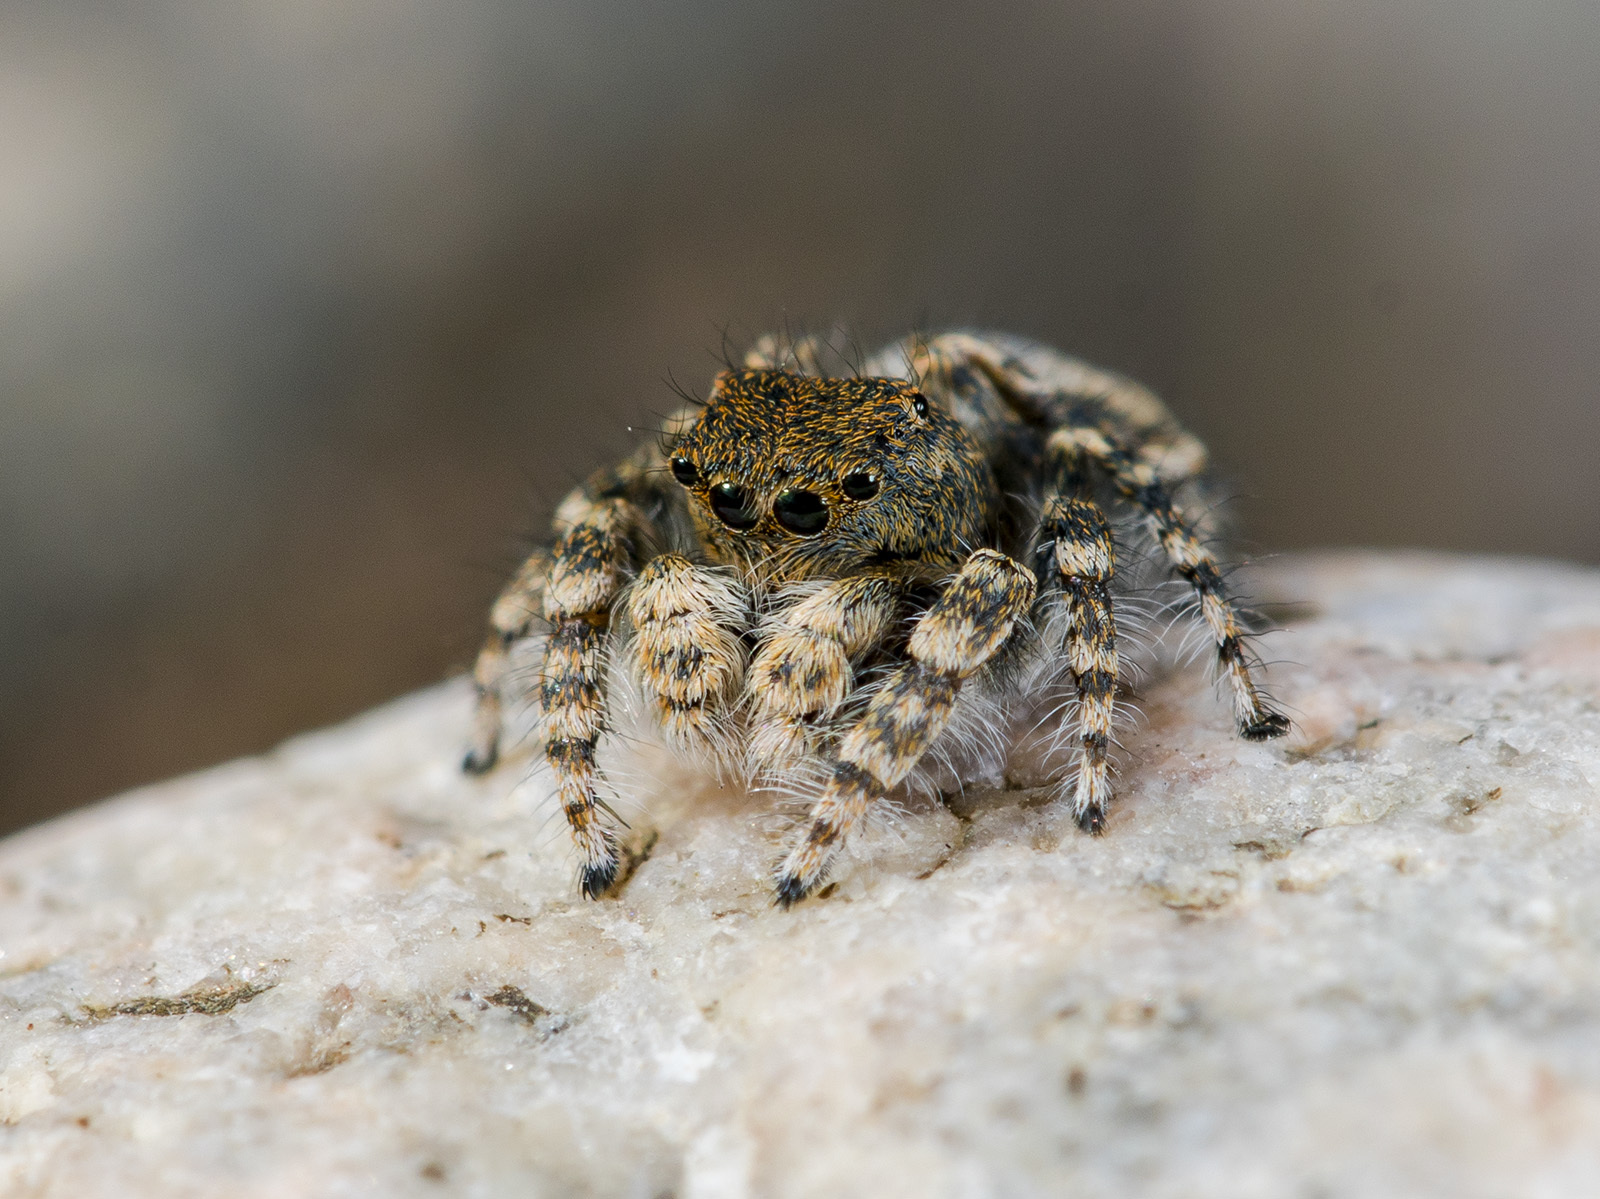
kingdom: Animalia
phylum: Arthropoda
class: Arachnida
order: Araneae
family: Salticidae
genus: Yllenus
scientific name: Yllenus zyuzini
